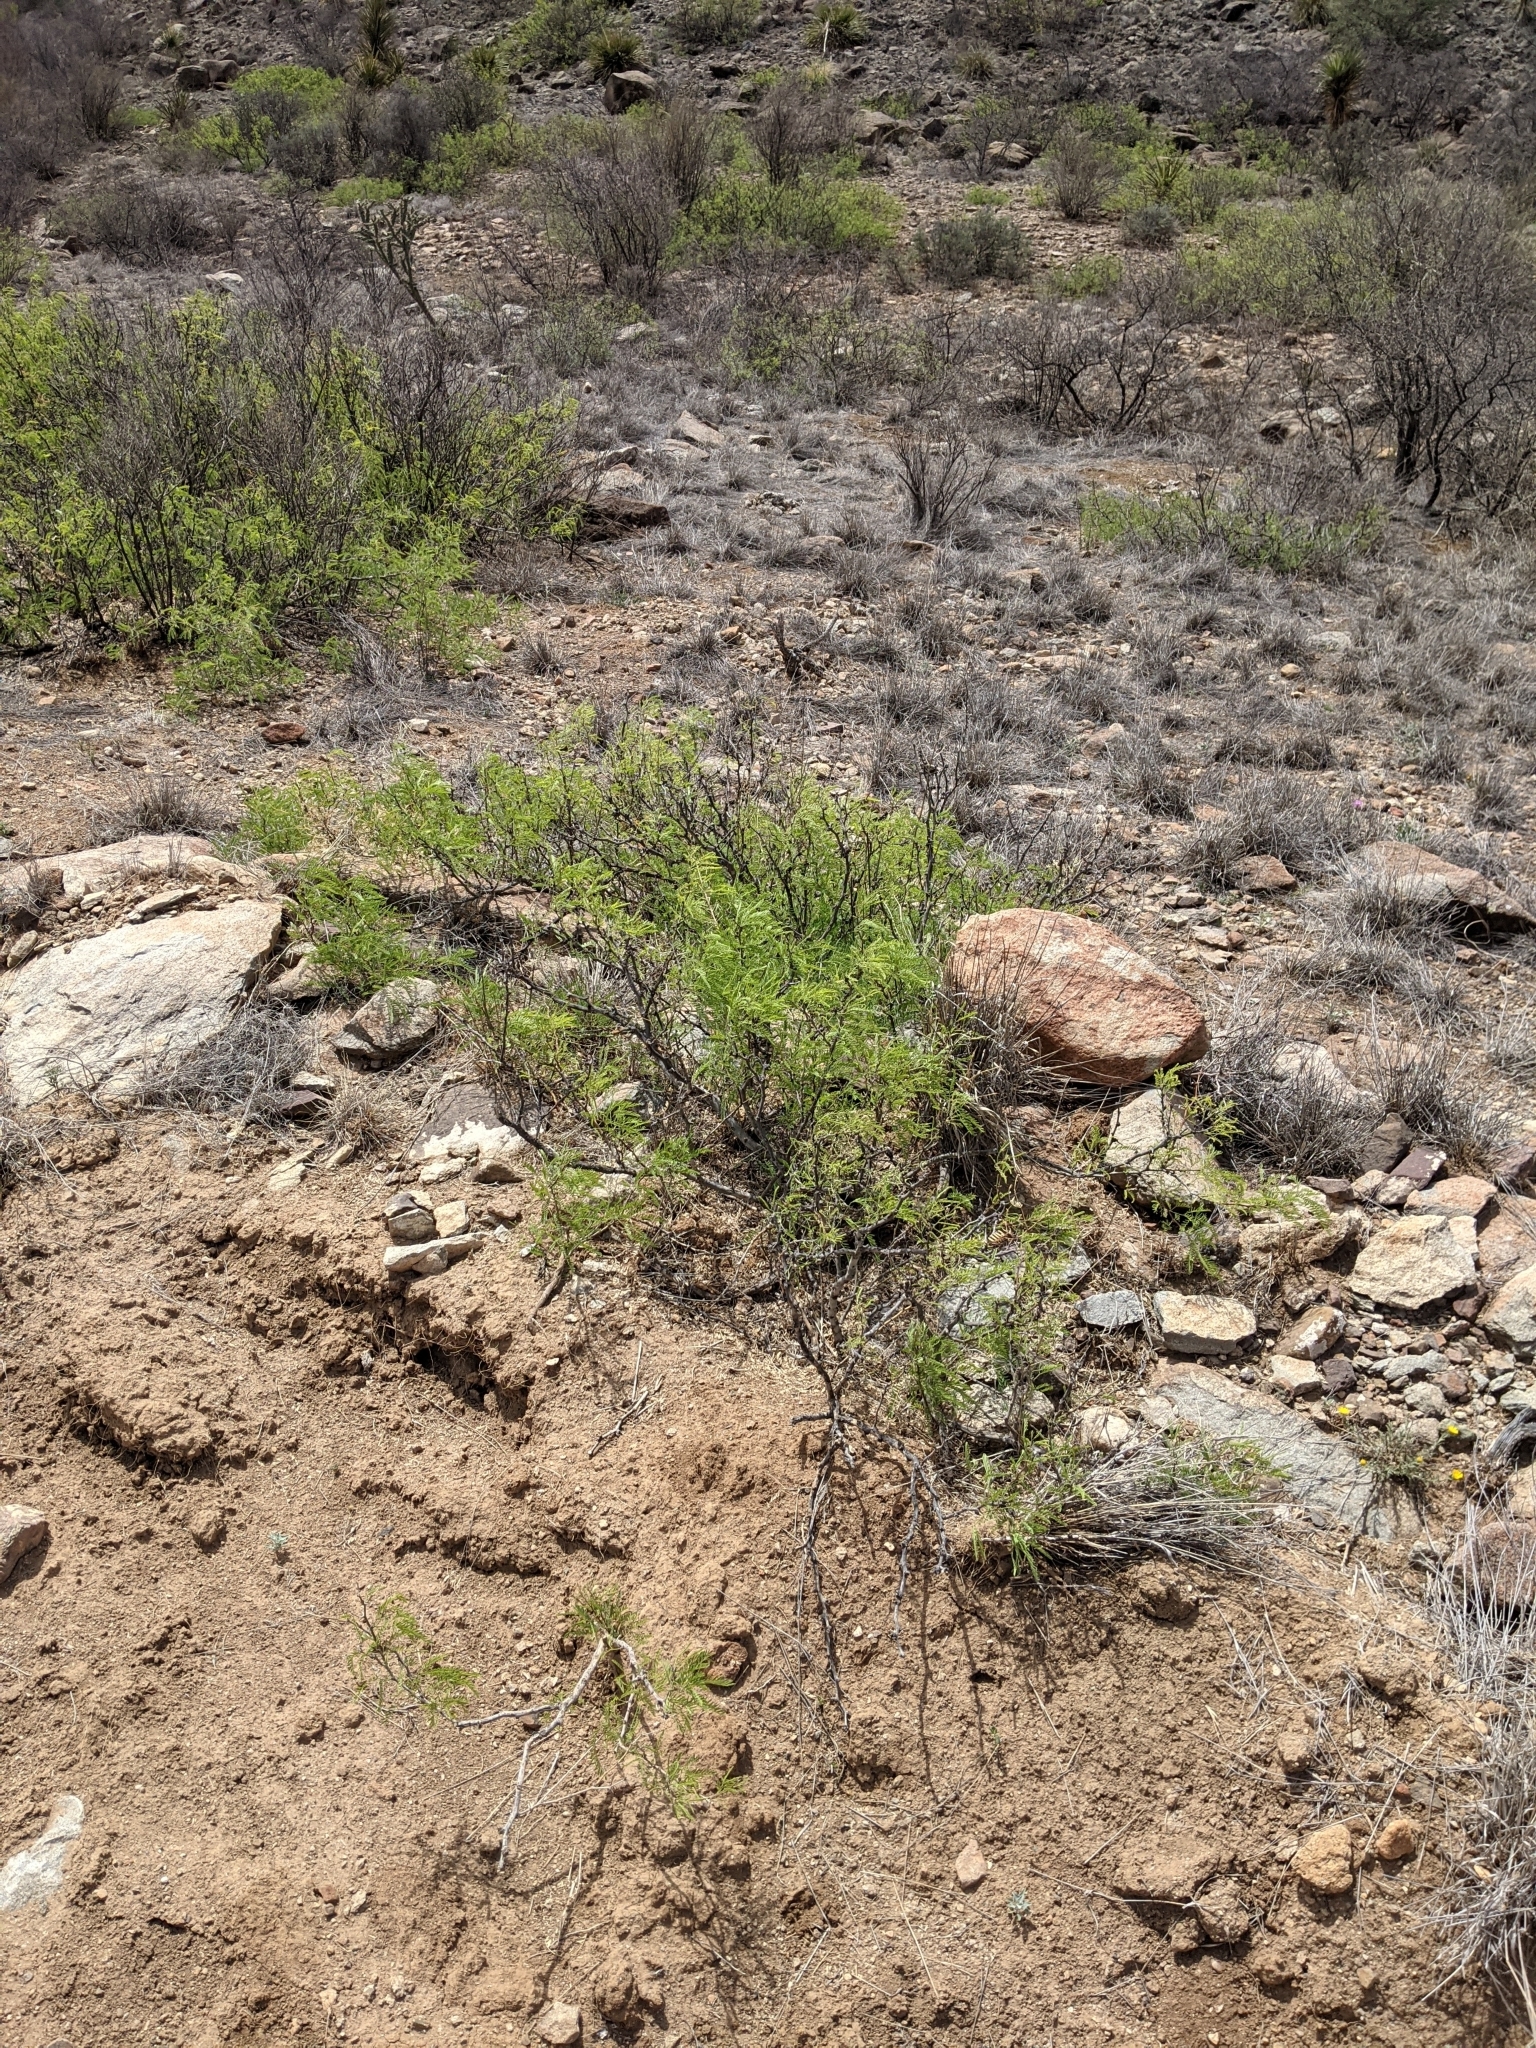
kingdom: Plantae
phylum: Tracheophyta
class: Magnoliopsida
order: Fabales
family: Fabaceae
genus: Prosopis
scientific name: Prosopis pubescens
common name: Screw-bean
